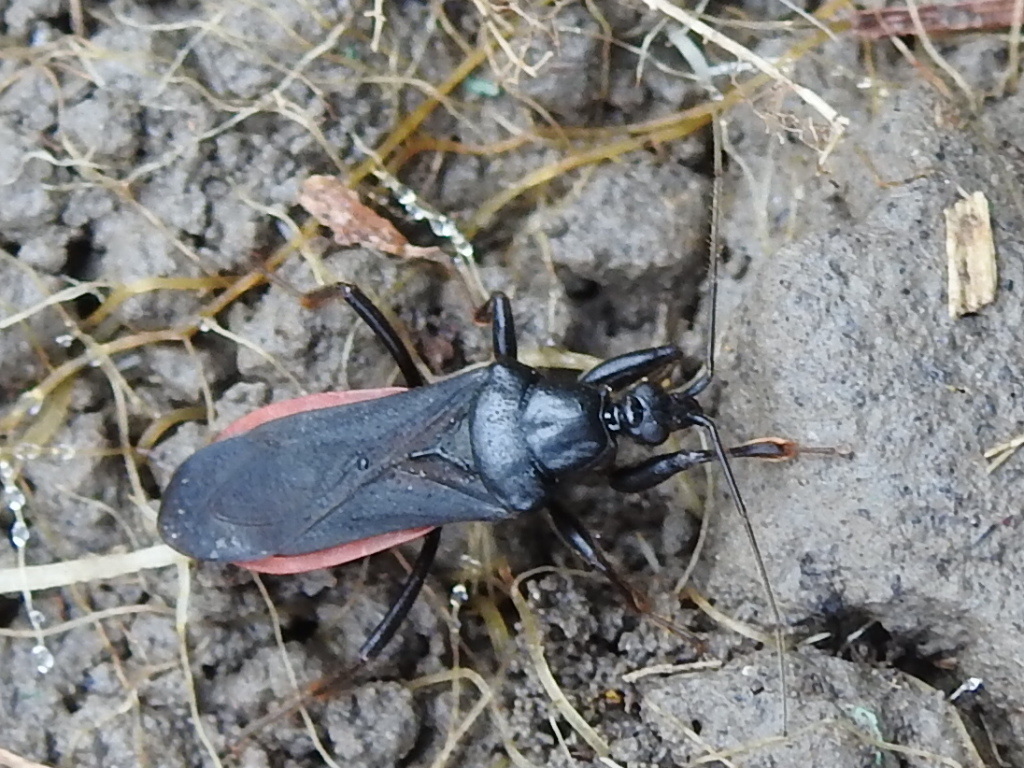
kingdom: Animalia
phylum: Arthropoda
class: Insecta
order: Hemiptera
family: Reduviidae
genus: Melanolestes
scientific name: Melanolestes picipes
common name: Assassin bug
